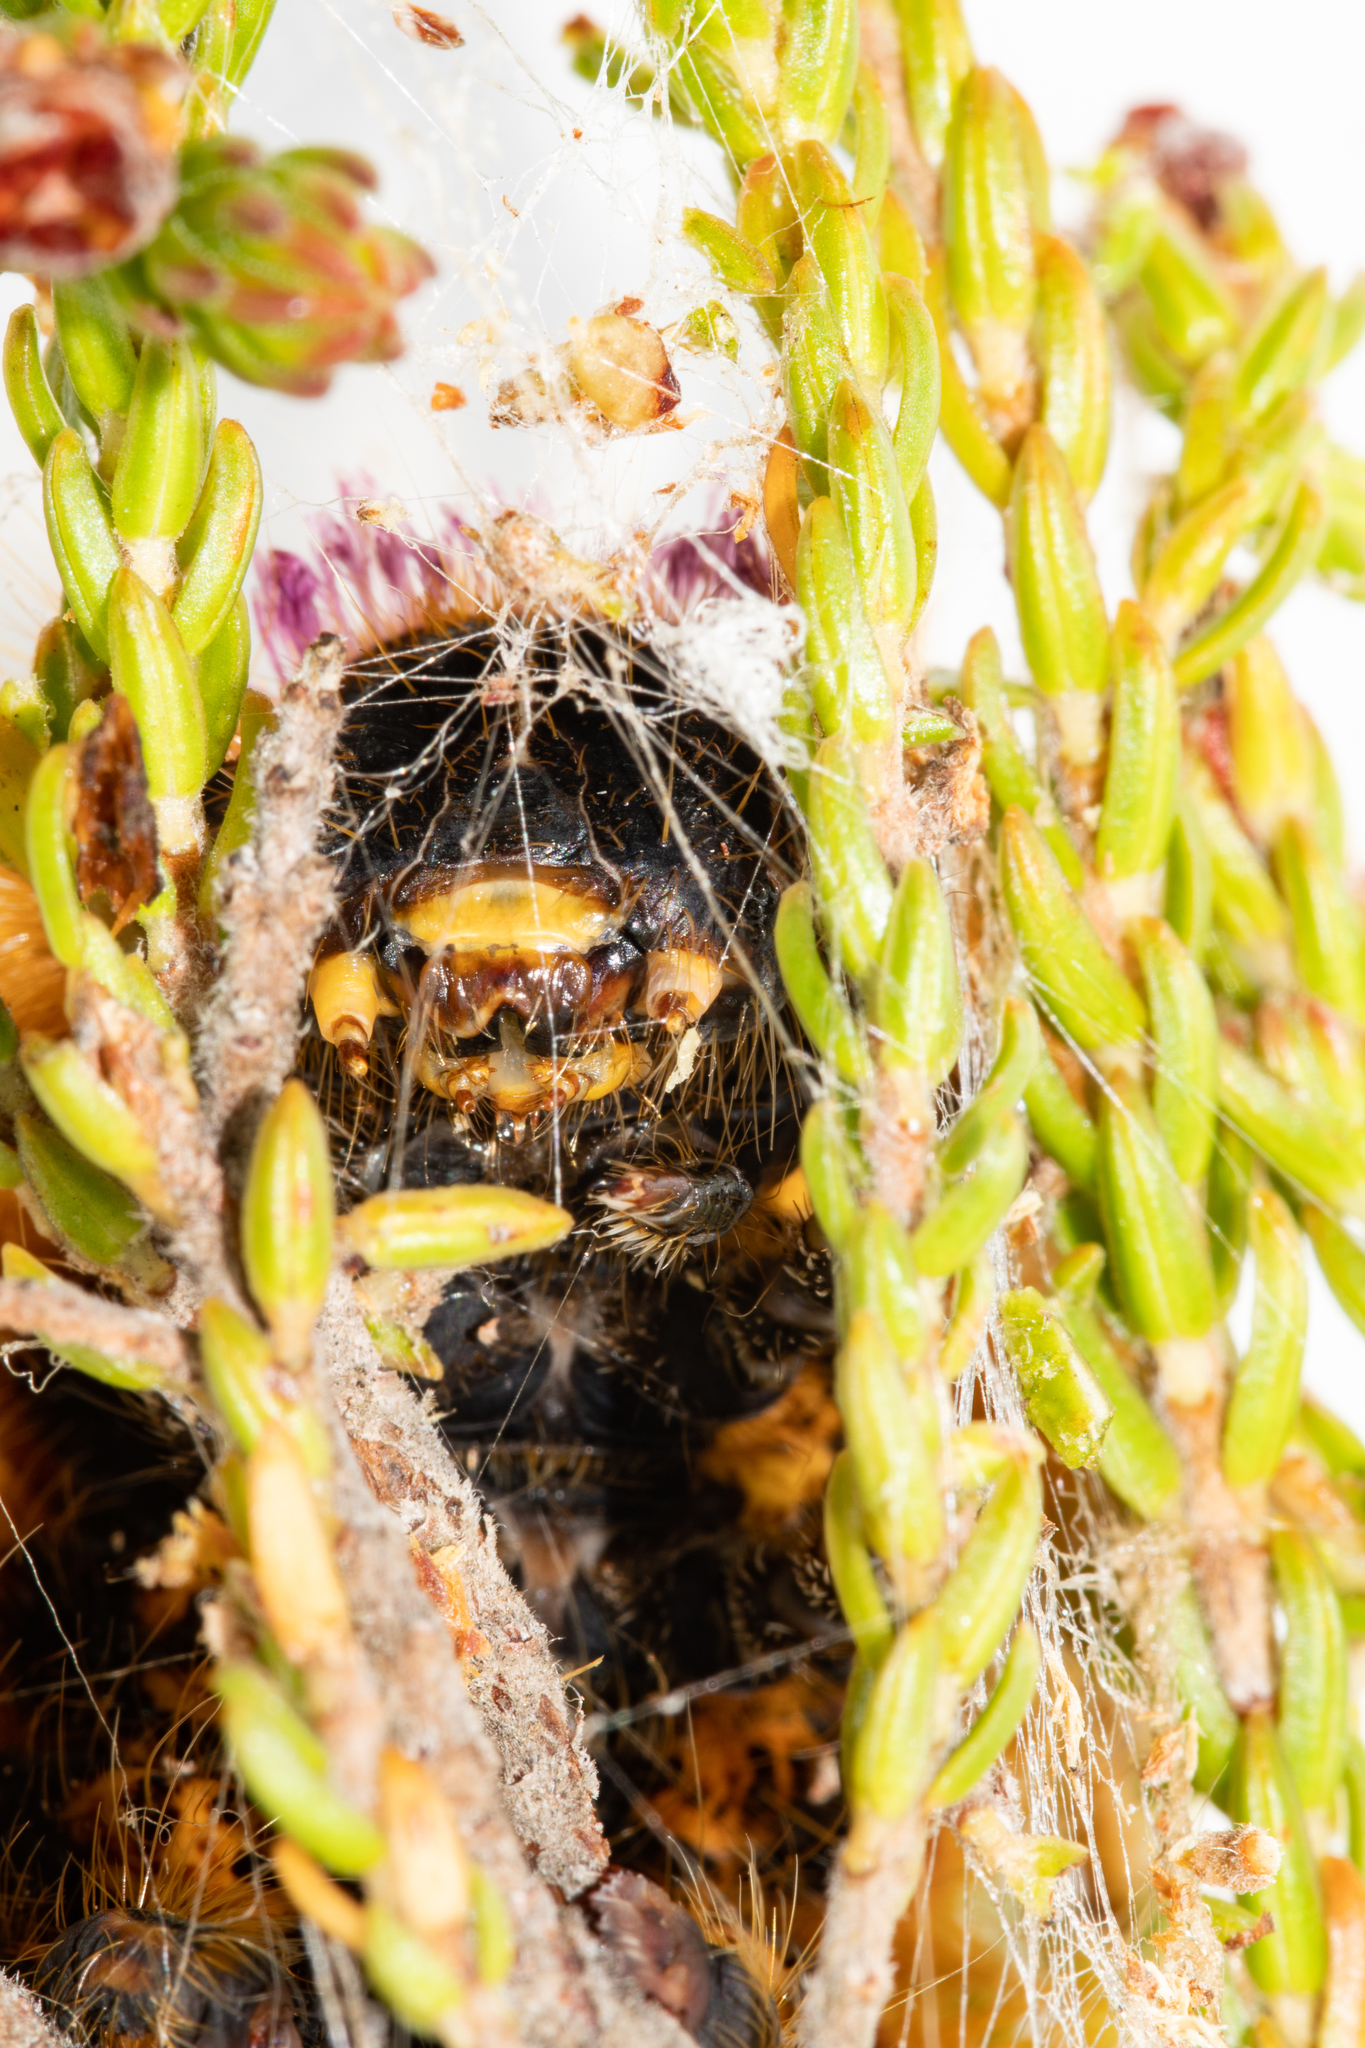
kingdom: Animalia
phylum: Arthropoda
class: Insecta
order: Lepidoptera
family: Lasiocampidae
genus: Eutricha
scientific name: Eutricha bifascia
